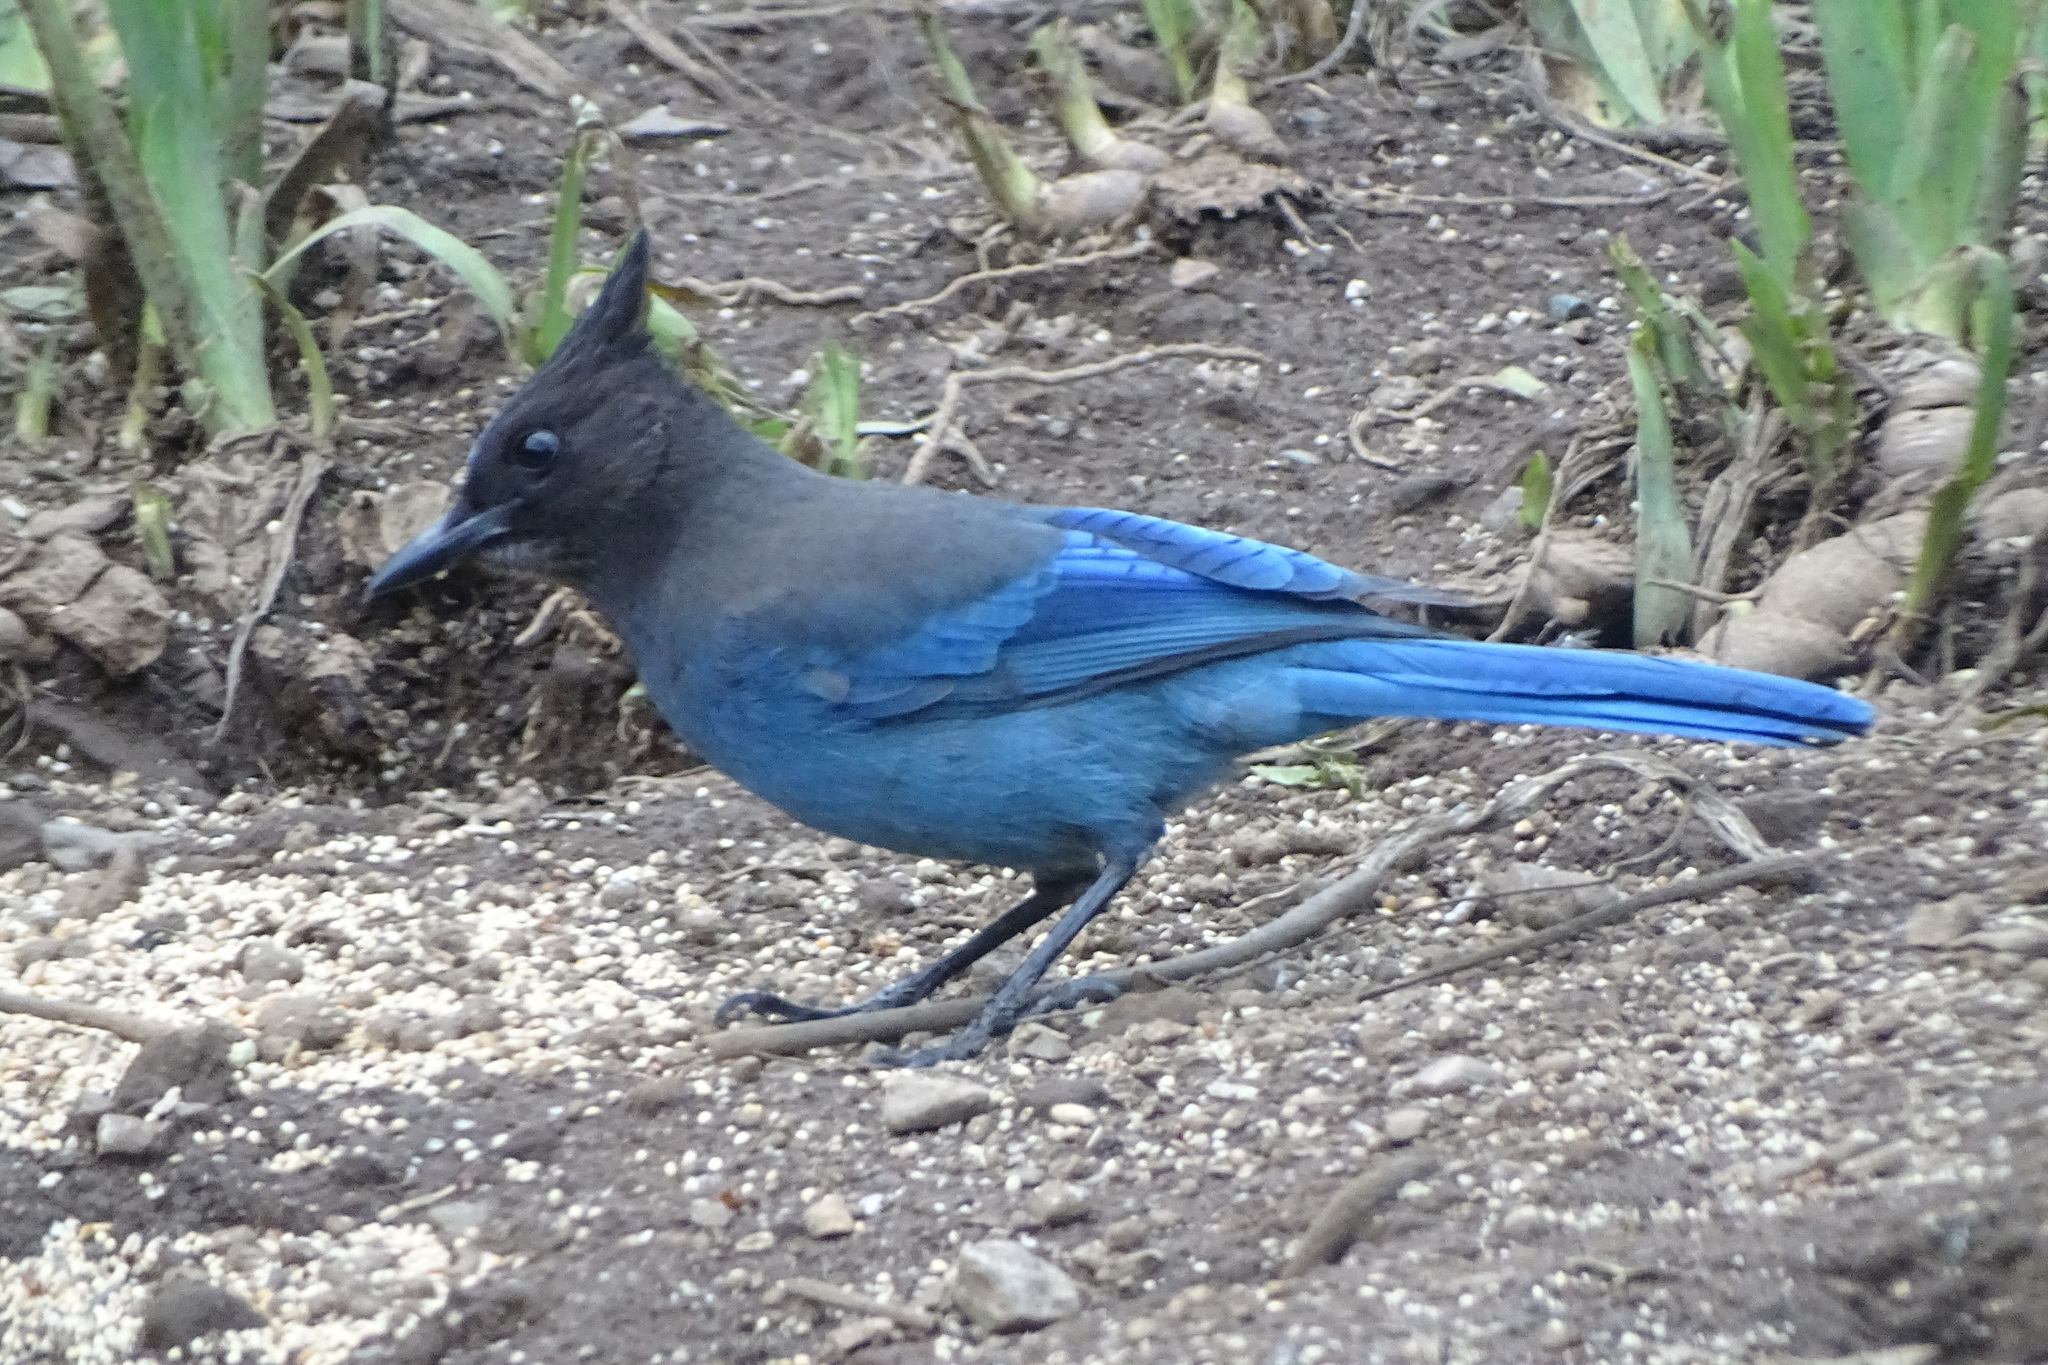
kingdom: Animalia
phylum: Chordata
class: Aves
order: Passeriformes
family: Corvidae
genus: Cyanocitta
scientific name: Cyanocitta stelleri
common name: Steller's jay
